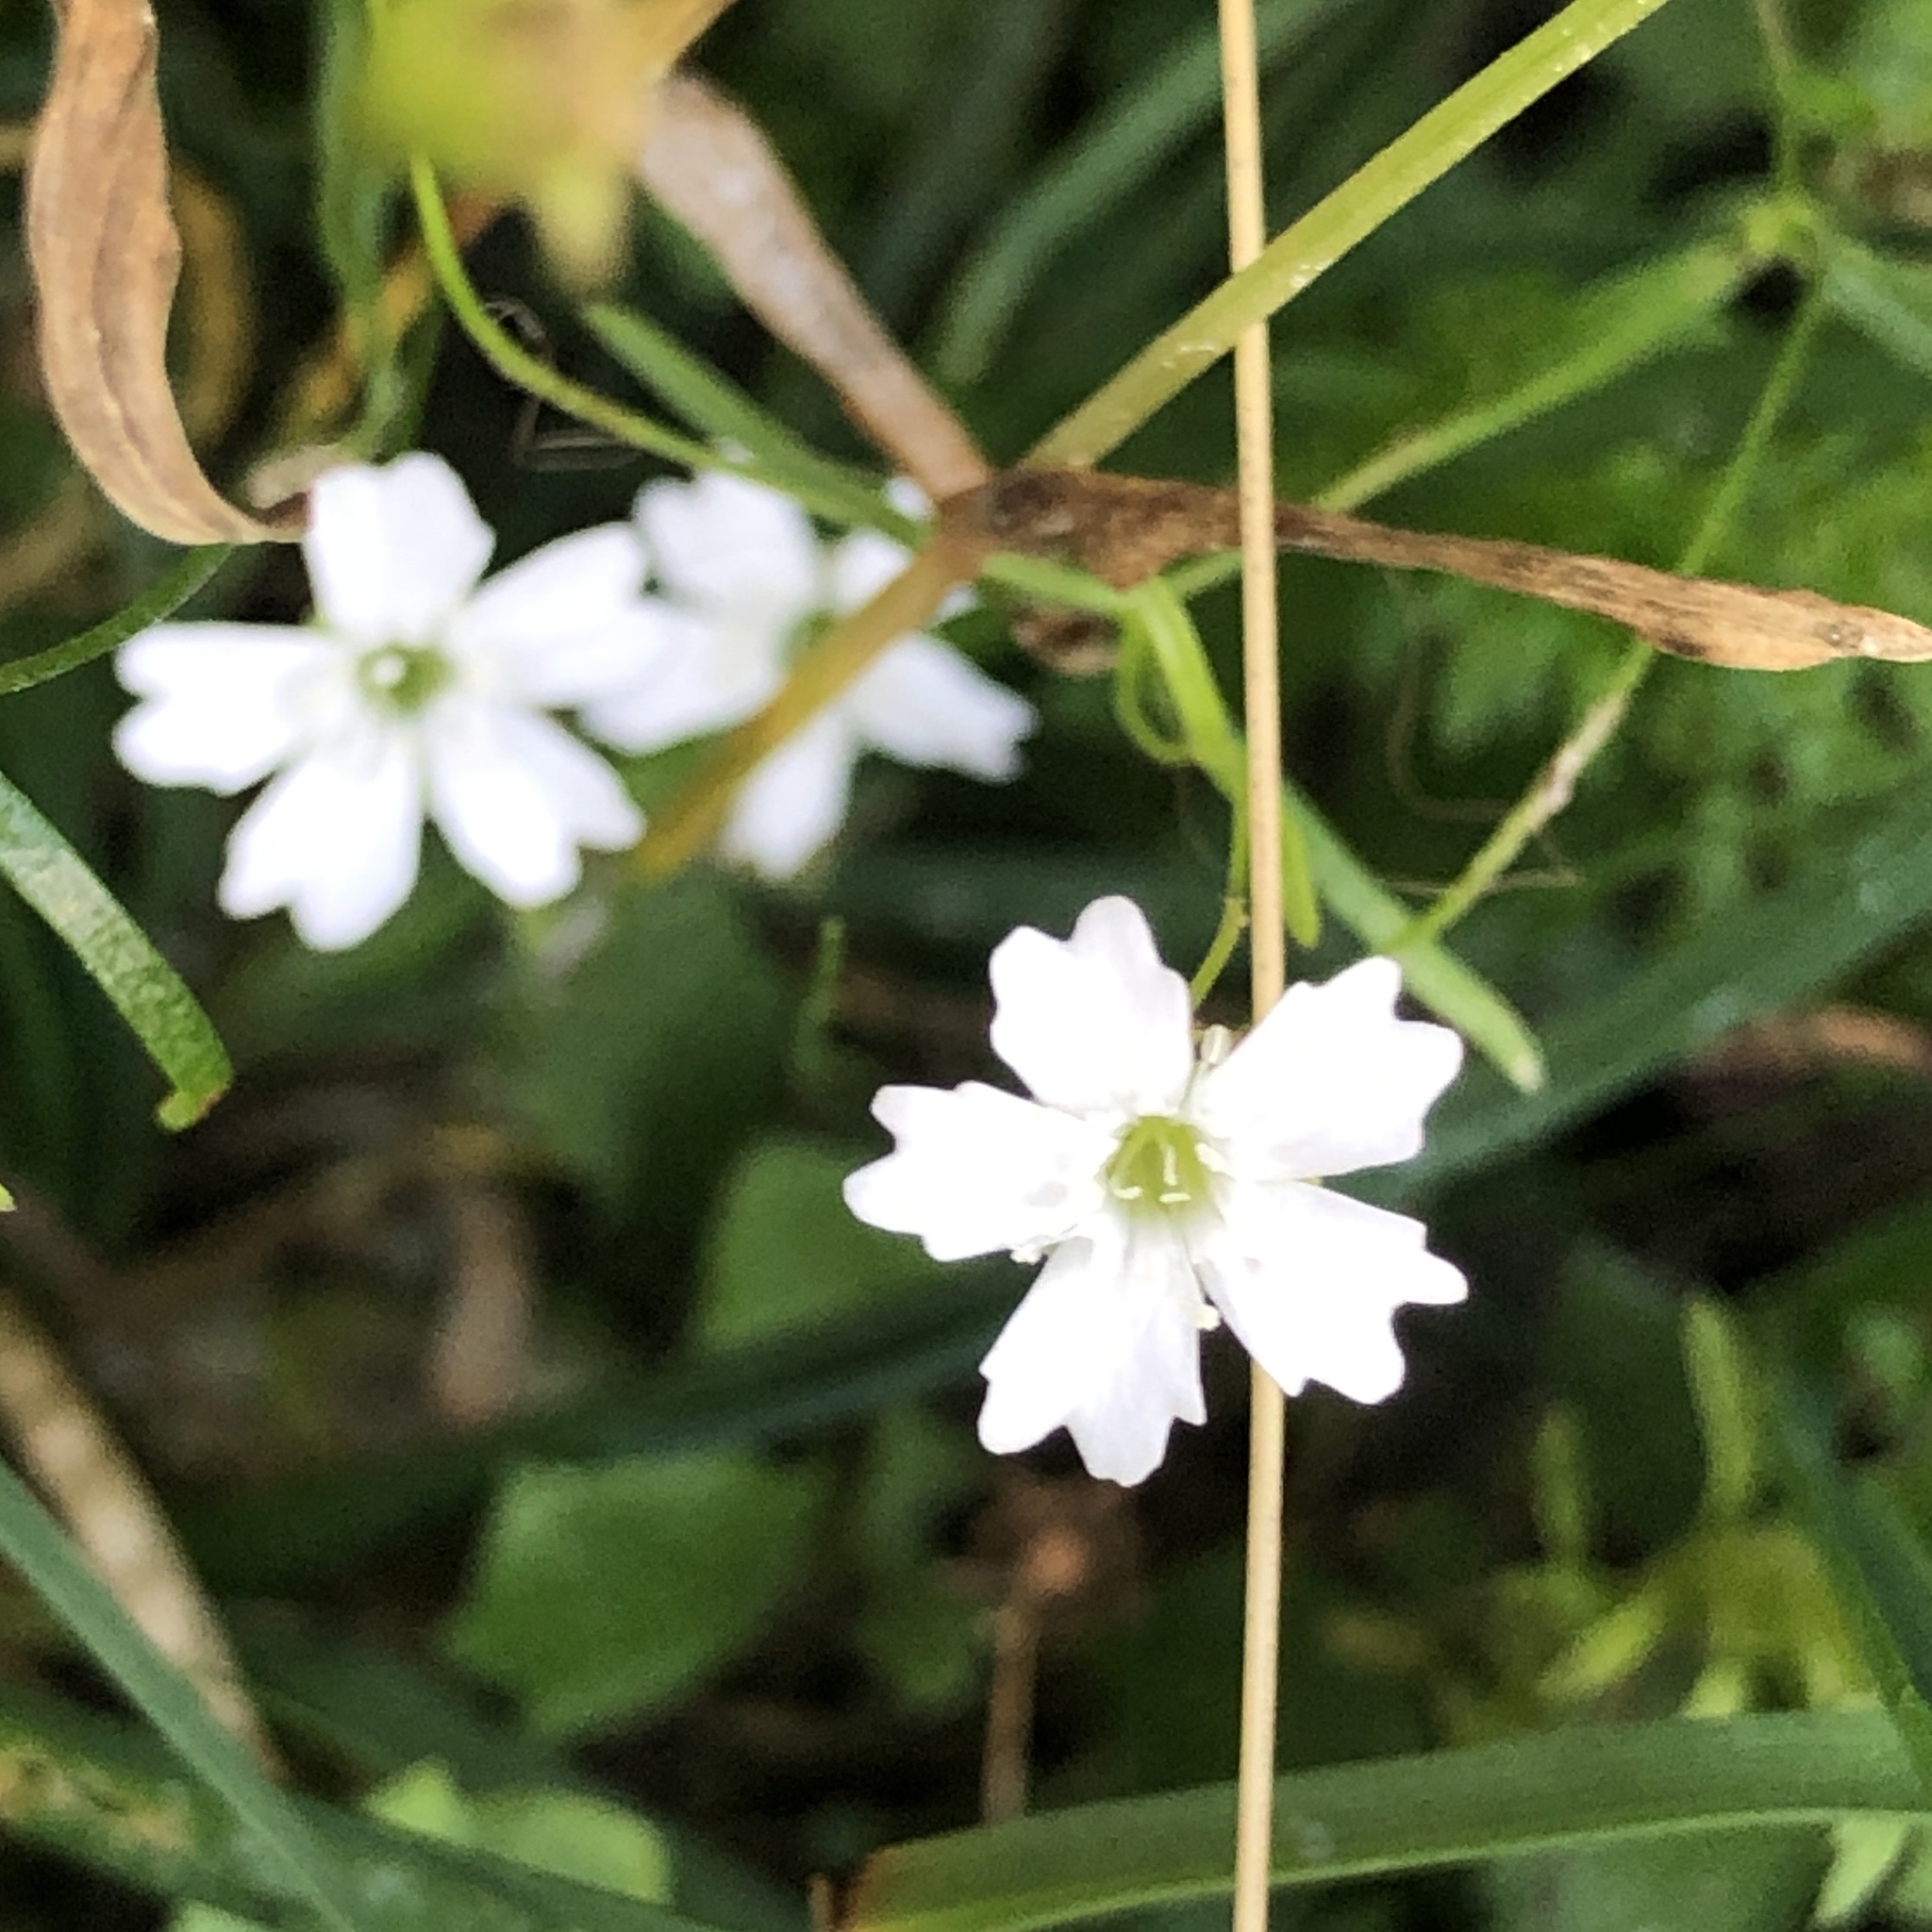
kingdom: Plantae
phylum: Tracheophyta
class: Magnoliopsida
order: Caryophyllales
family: Caryophyllaceae
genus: Heliosperma
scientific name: Heliosperma pusillum
